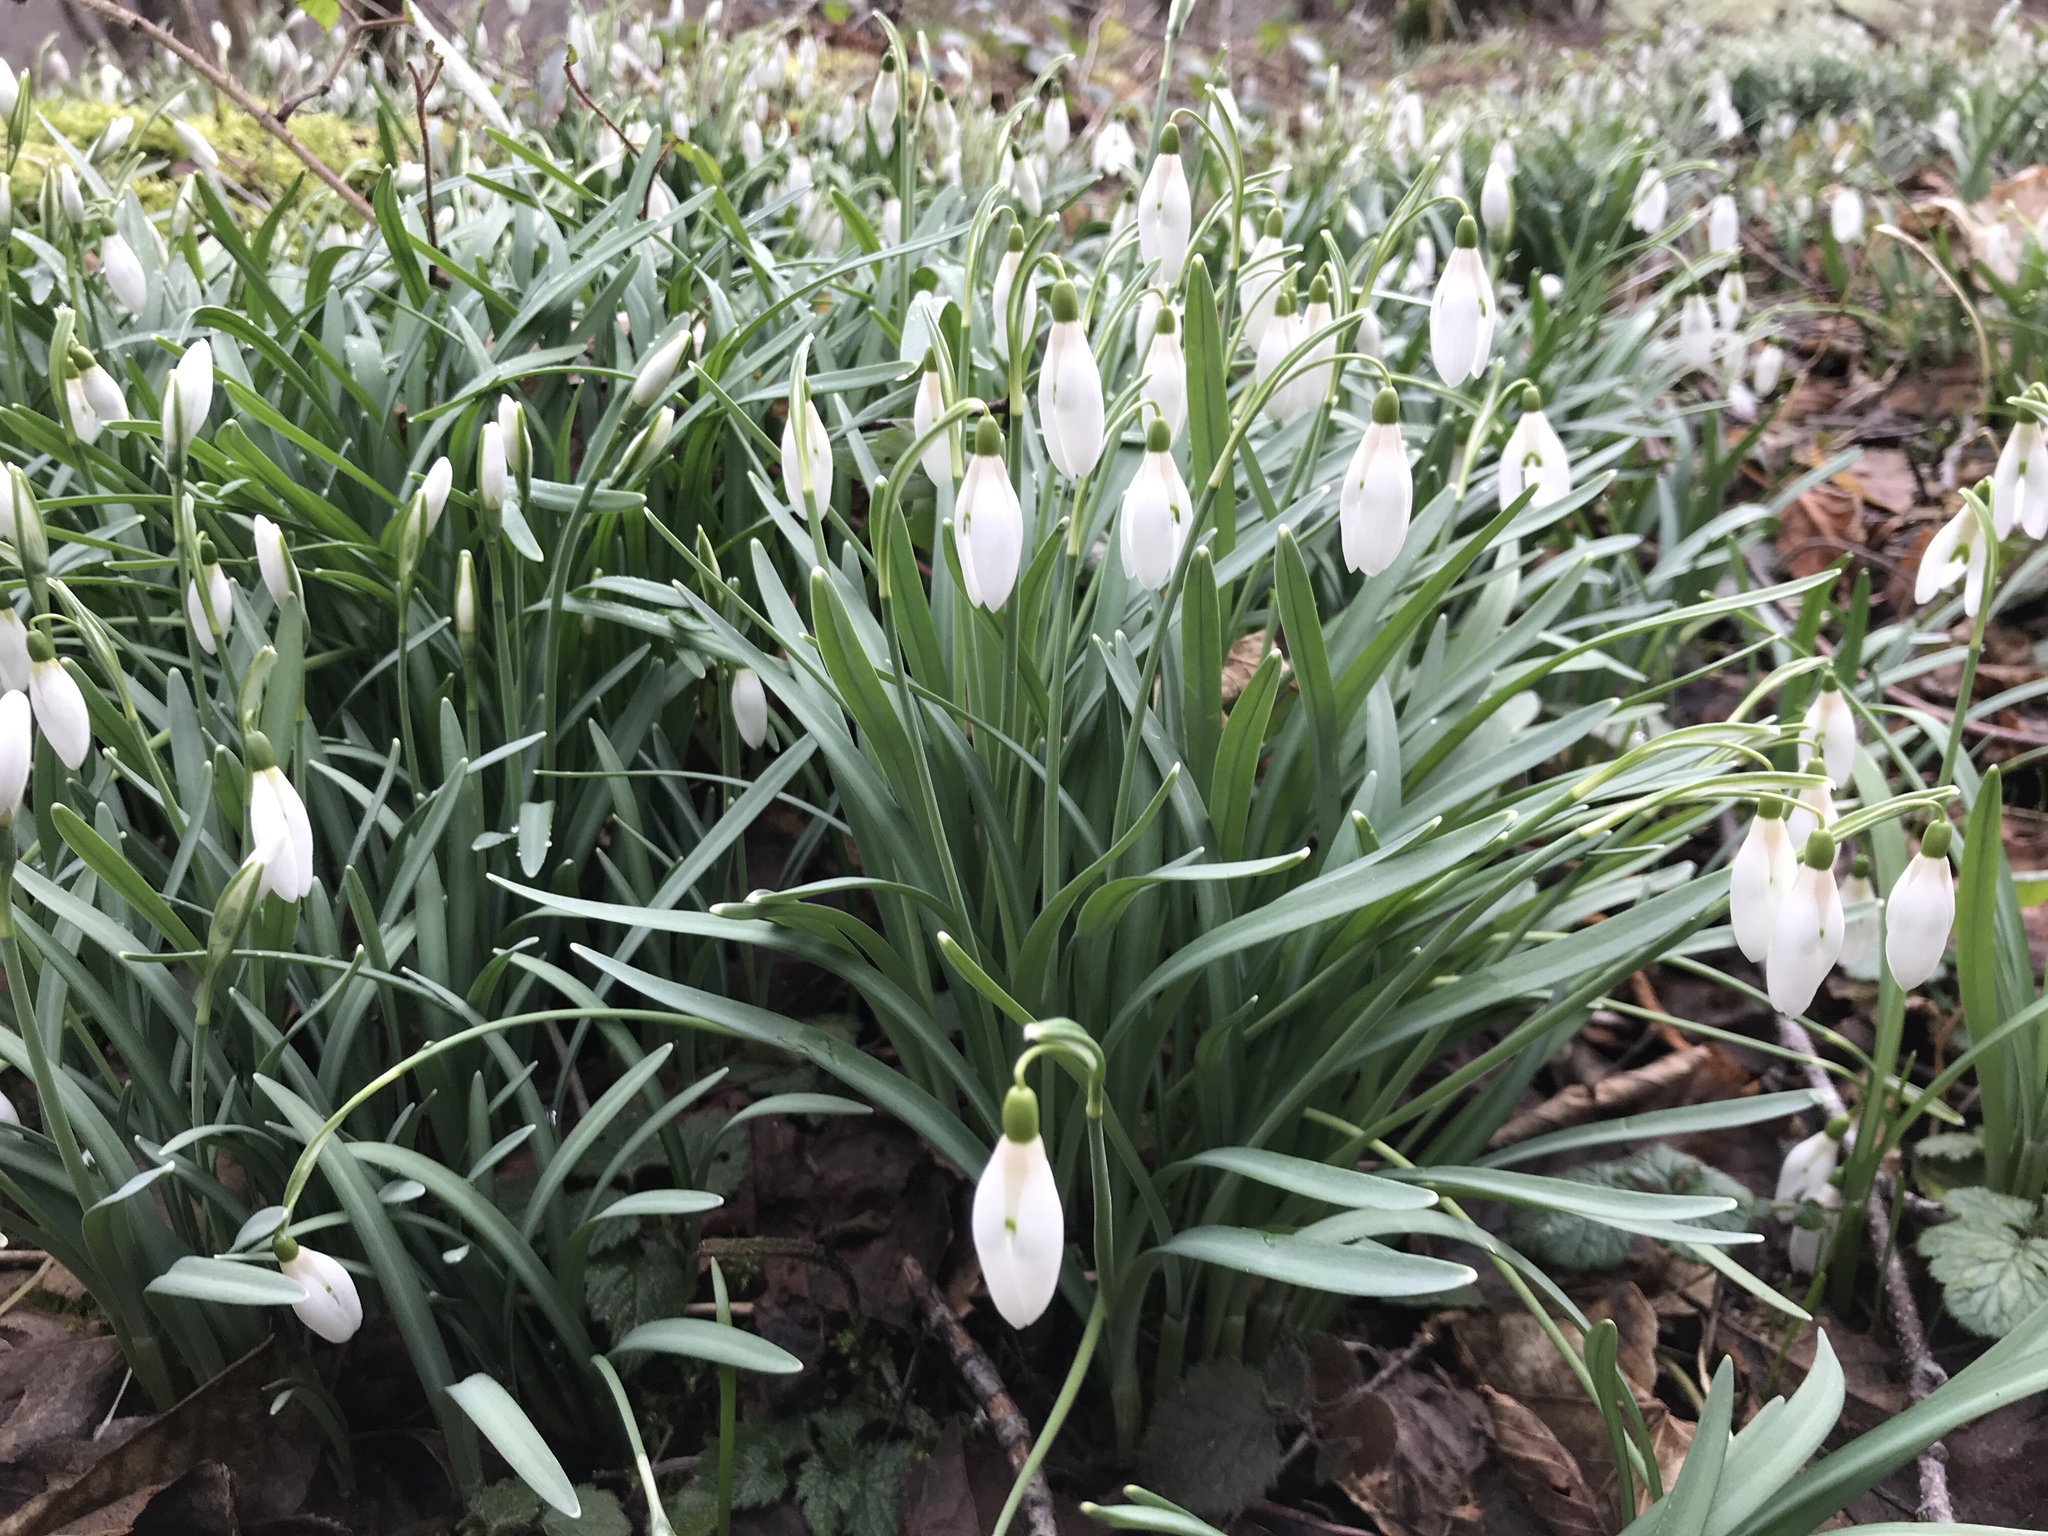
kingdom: Plantae
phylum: Tracheophyta
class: Liliopsida
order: Asparagales
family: Amaryllidaceae
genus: Galanthus
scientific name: Galanthus nivalis
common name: Snowdrop
